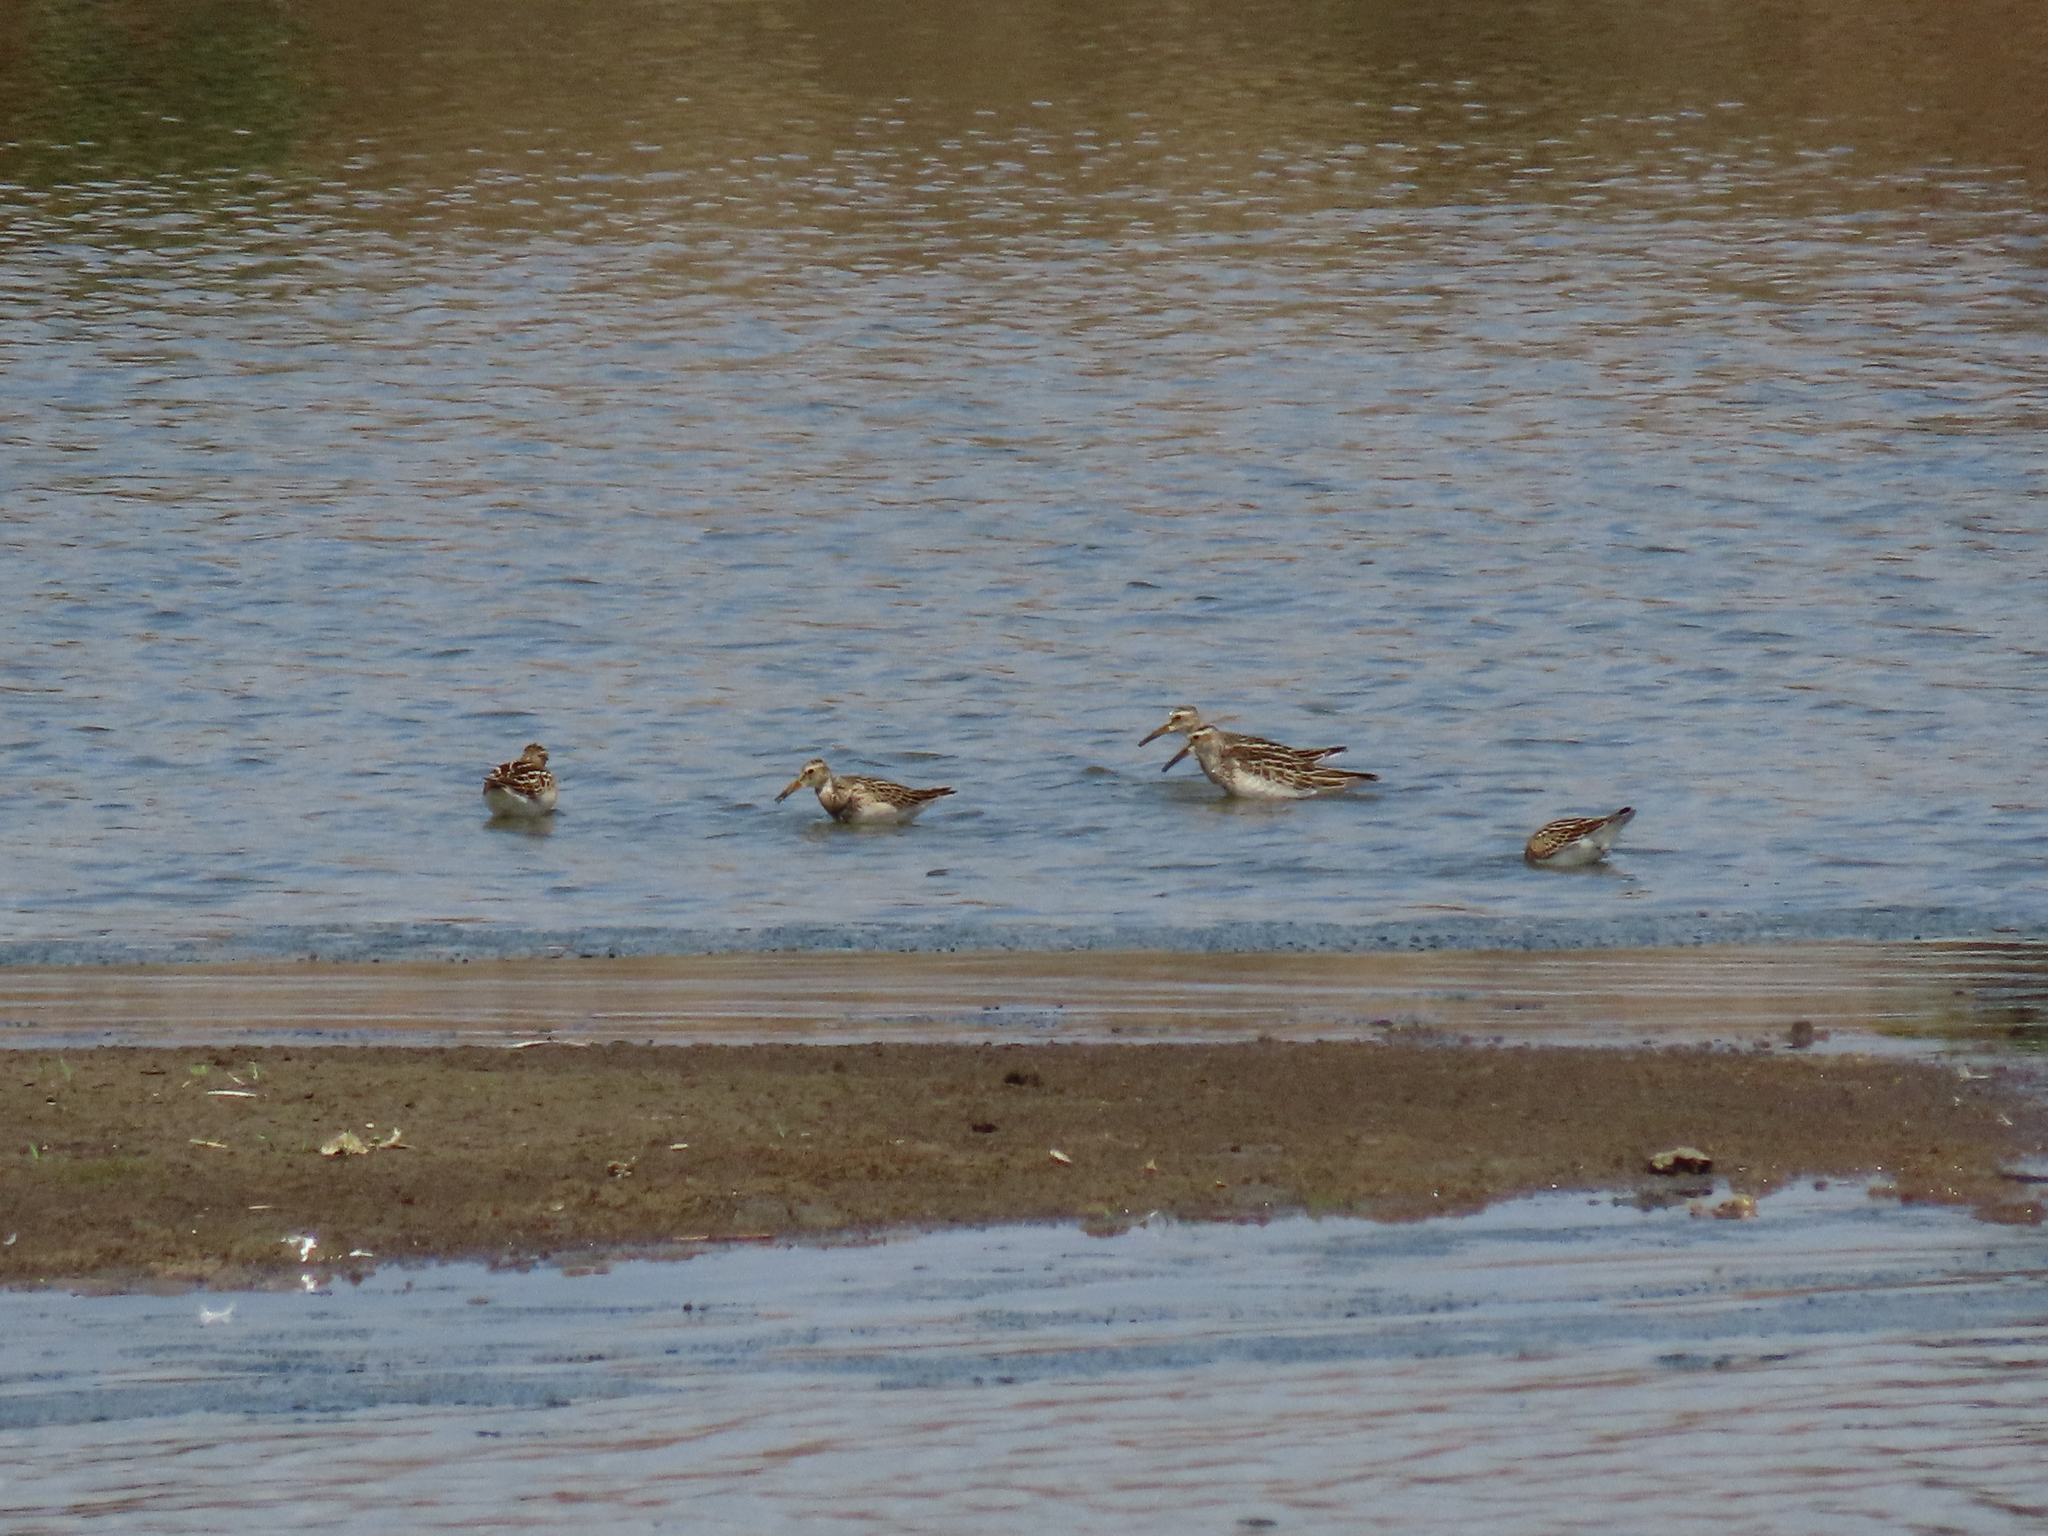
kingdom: Animalia
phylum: Chordata
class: Aves
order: Charadriiformes
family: Scolopacidae
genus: Calidris
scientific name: Calidris melanotos
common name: Pectoral sandpiper
